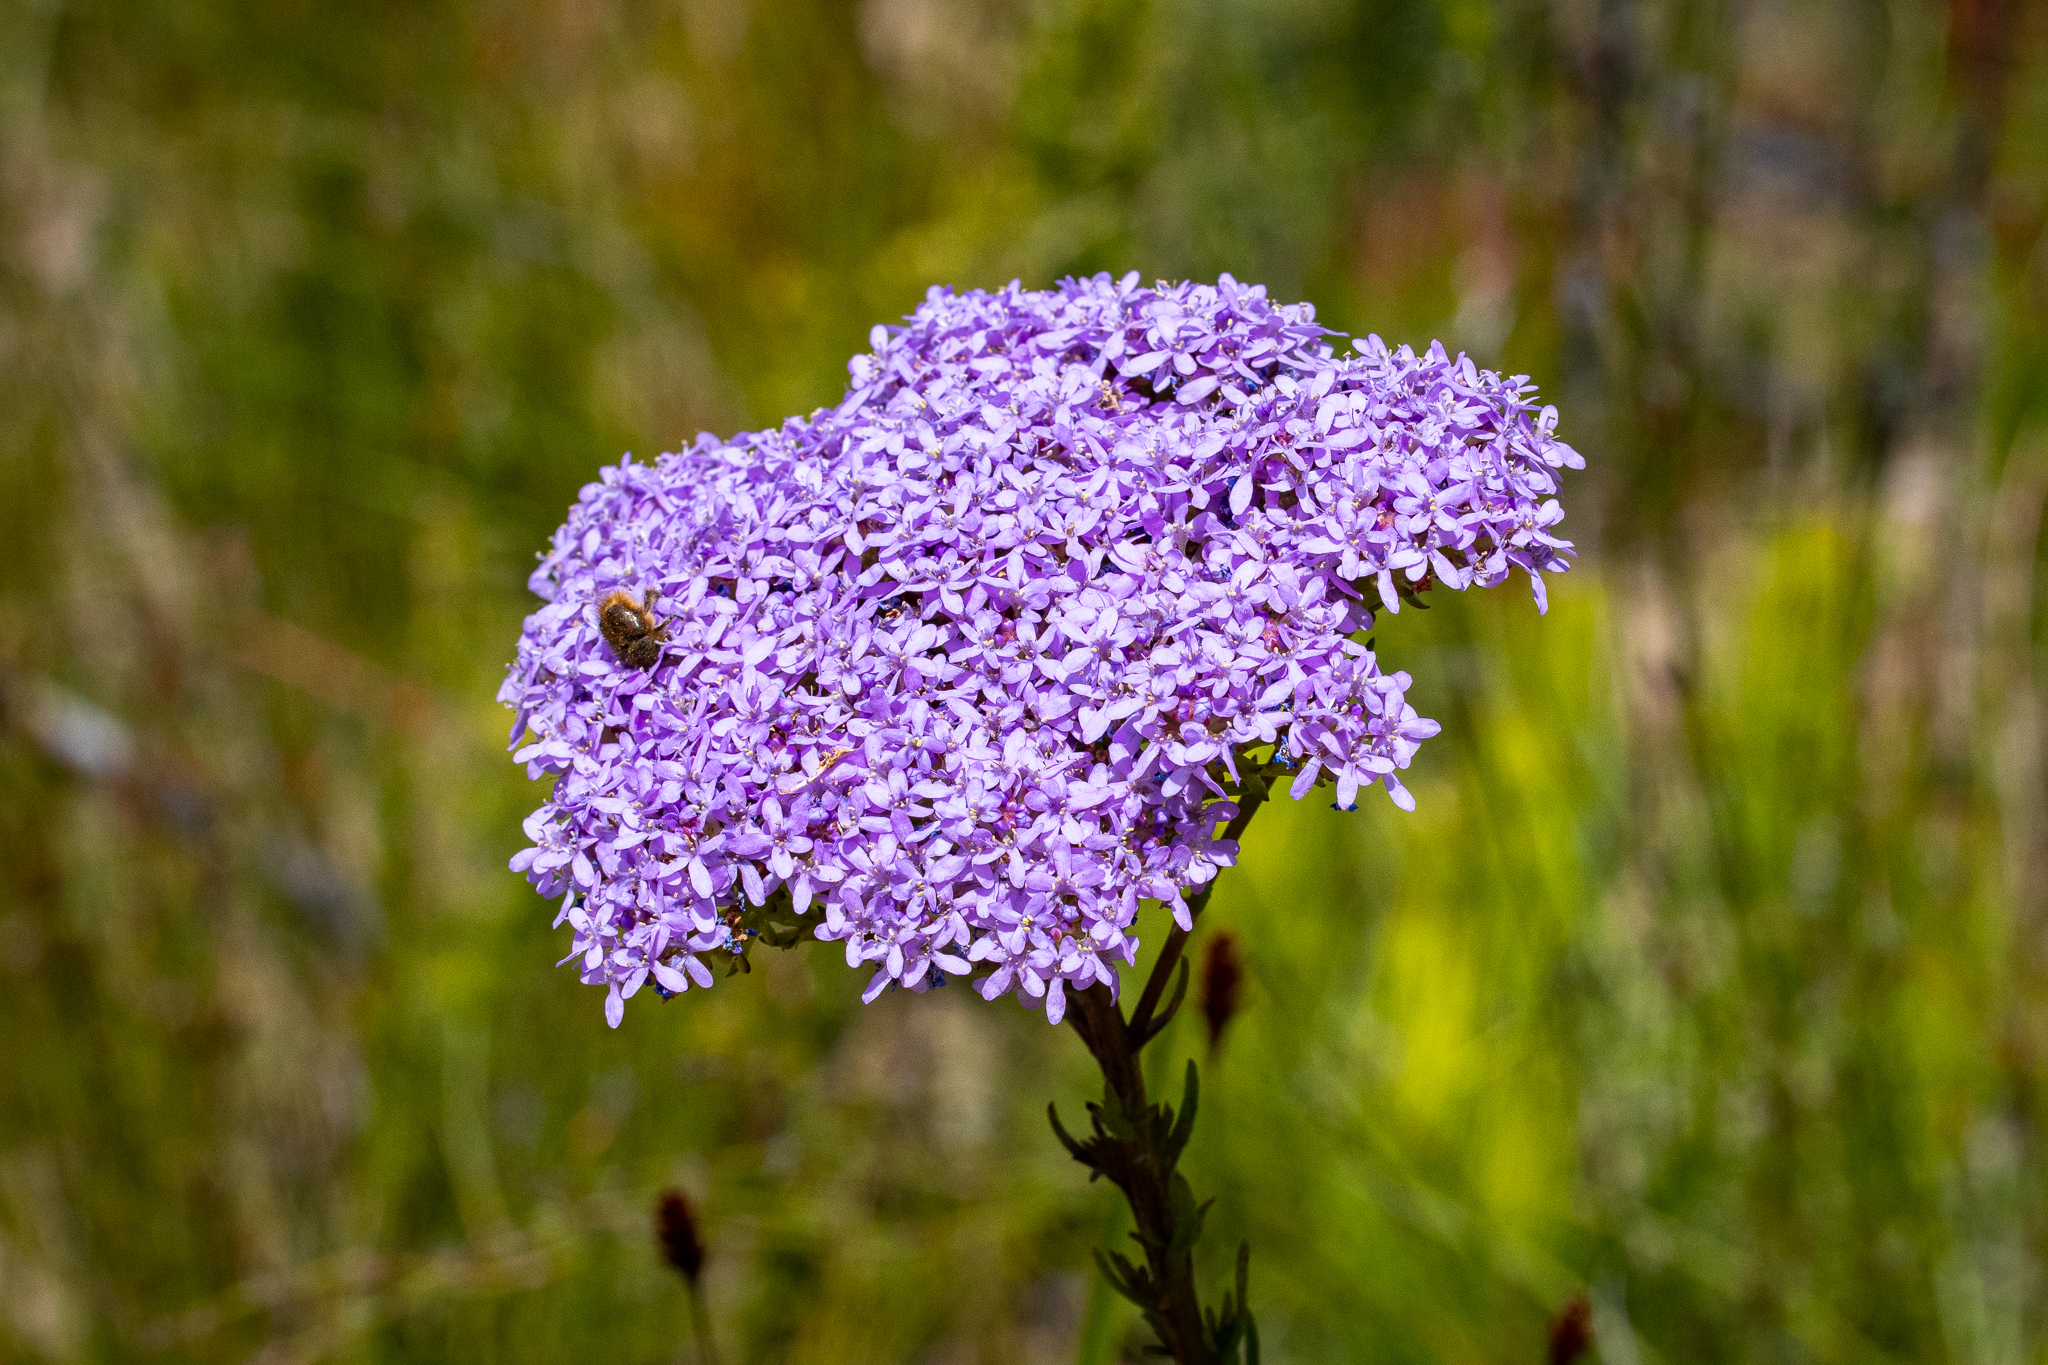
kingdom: Plantae
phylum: Tracheophyta
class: Magnoliopsida
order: Lamiales
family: Scrophulariaceae
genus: Pseudoselago
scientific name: Pseudoselago spuria
